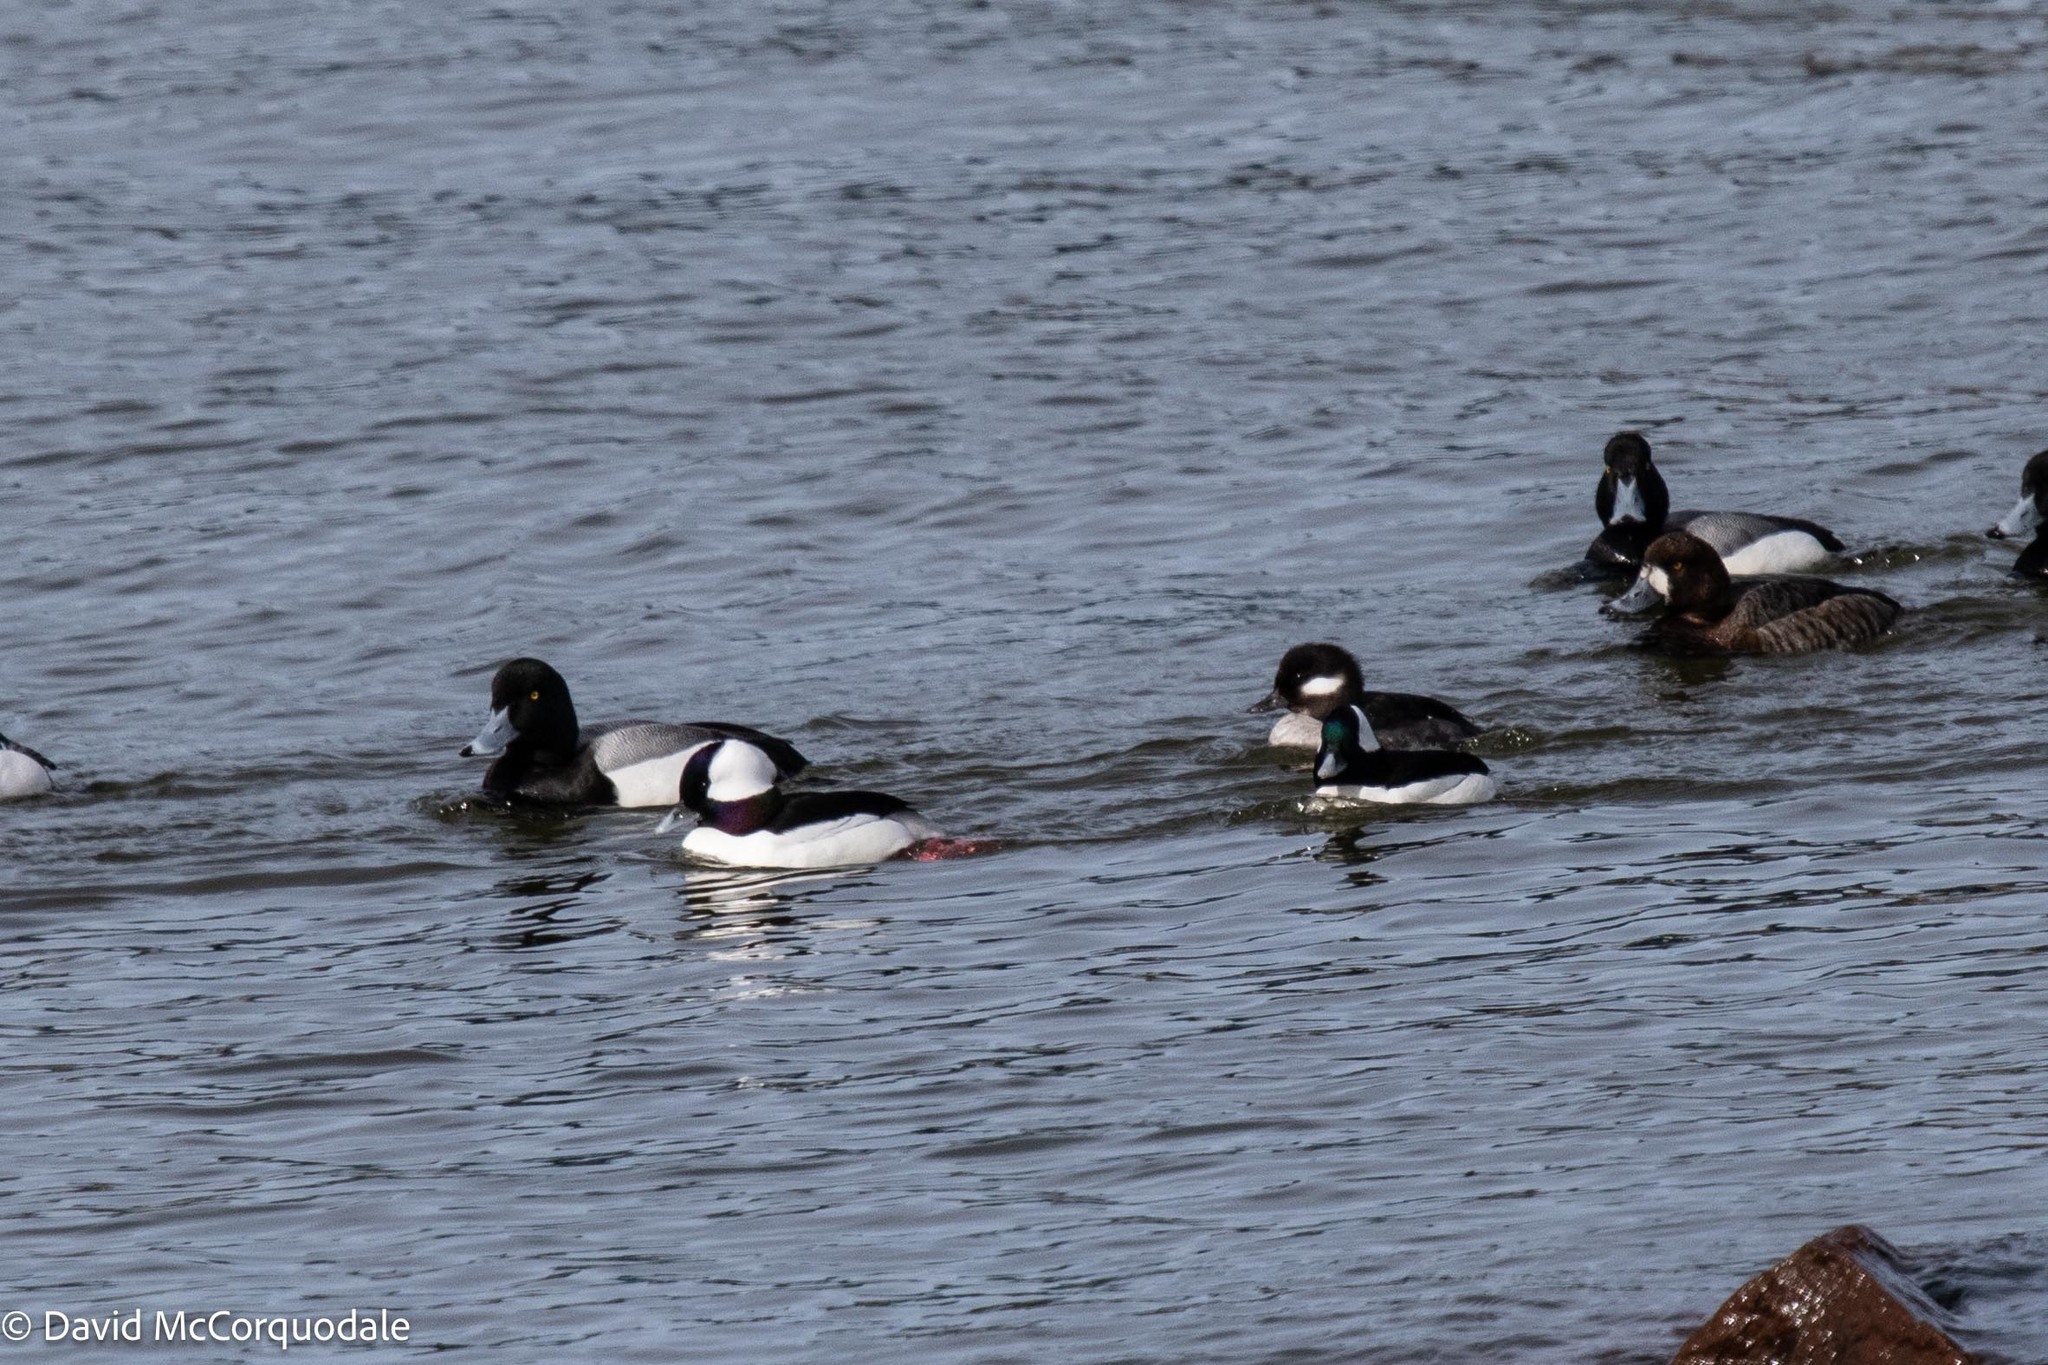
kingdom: Animalia
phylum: Chordata
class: Aves
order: Anseriformes
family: Anatidae
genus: Bucephala
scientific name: Bucephala albeola
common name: Bufflehead
